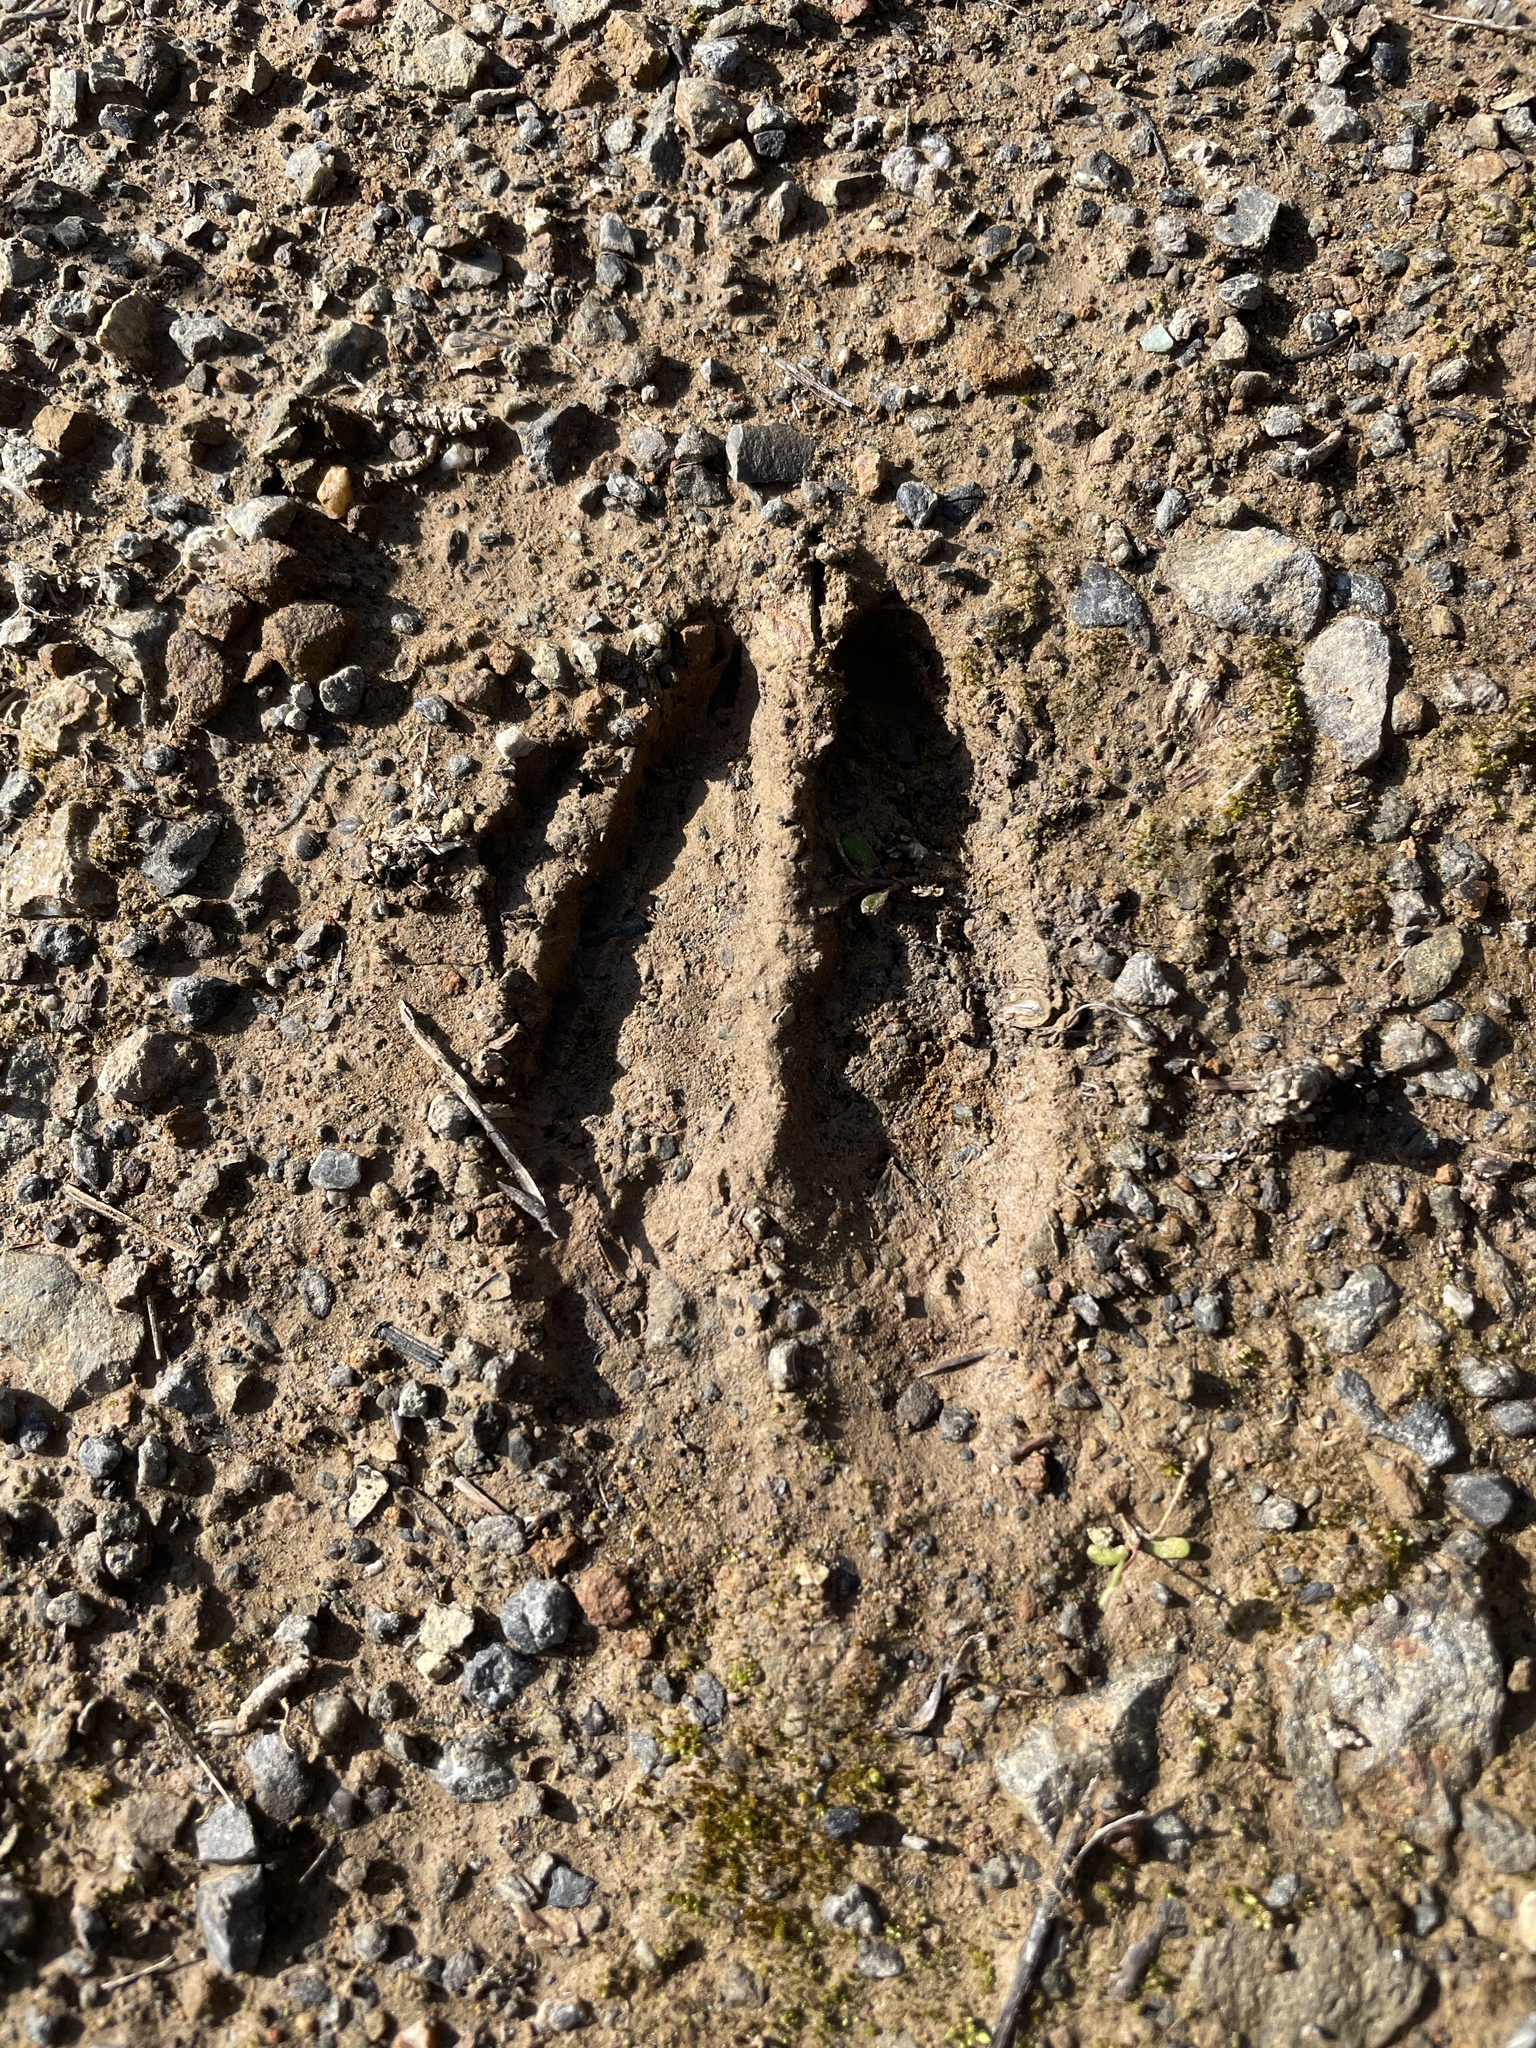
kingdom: Animalia
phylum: Chordata
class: Mammalia
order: Artiodactyla
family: Cervidae
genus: Odocoileus
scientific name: Odocoileus hemionus
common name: Mule deer
